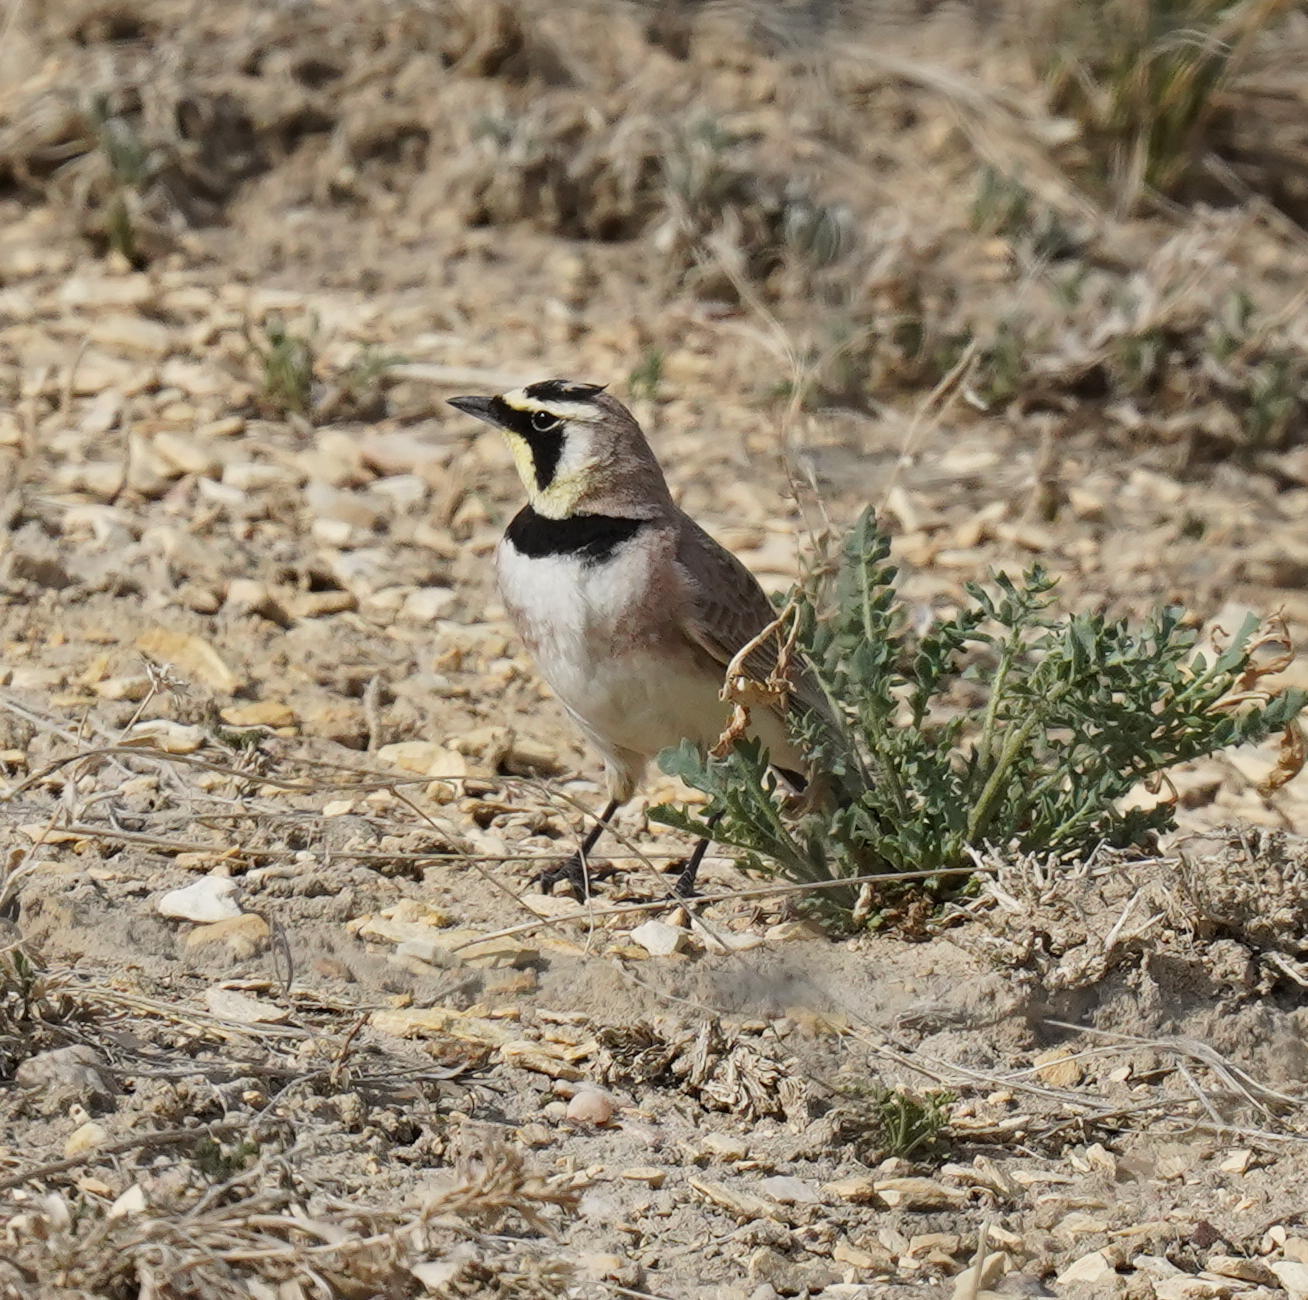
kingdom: Animalia
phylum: Chordata
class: Aves
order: Passeriformes
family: Alaudidae
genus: Eremophila
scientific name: Eremophila alpestris
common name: Horned lark
